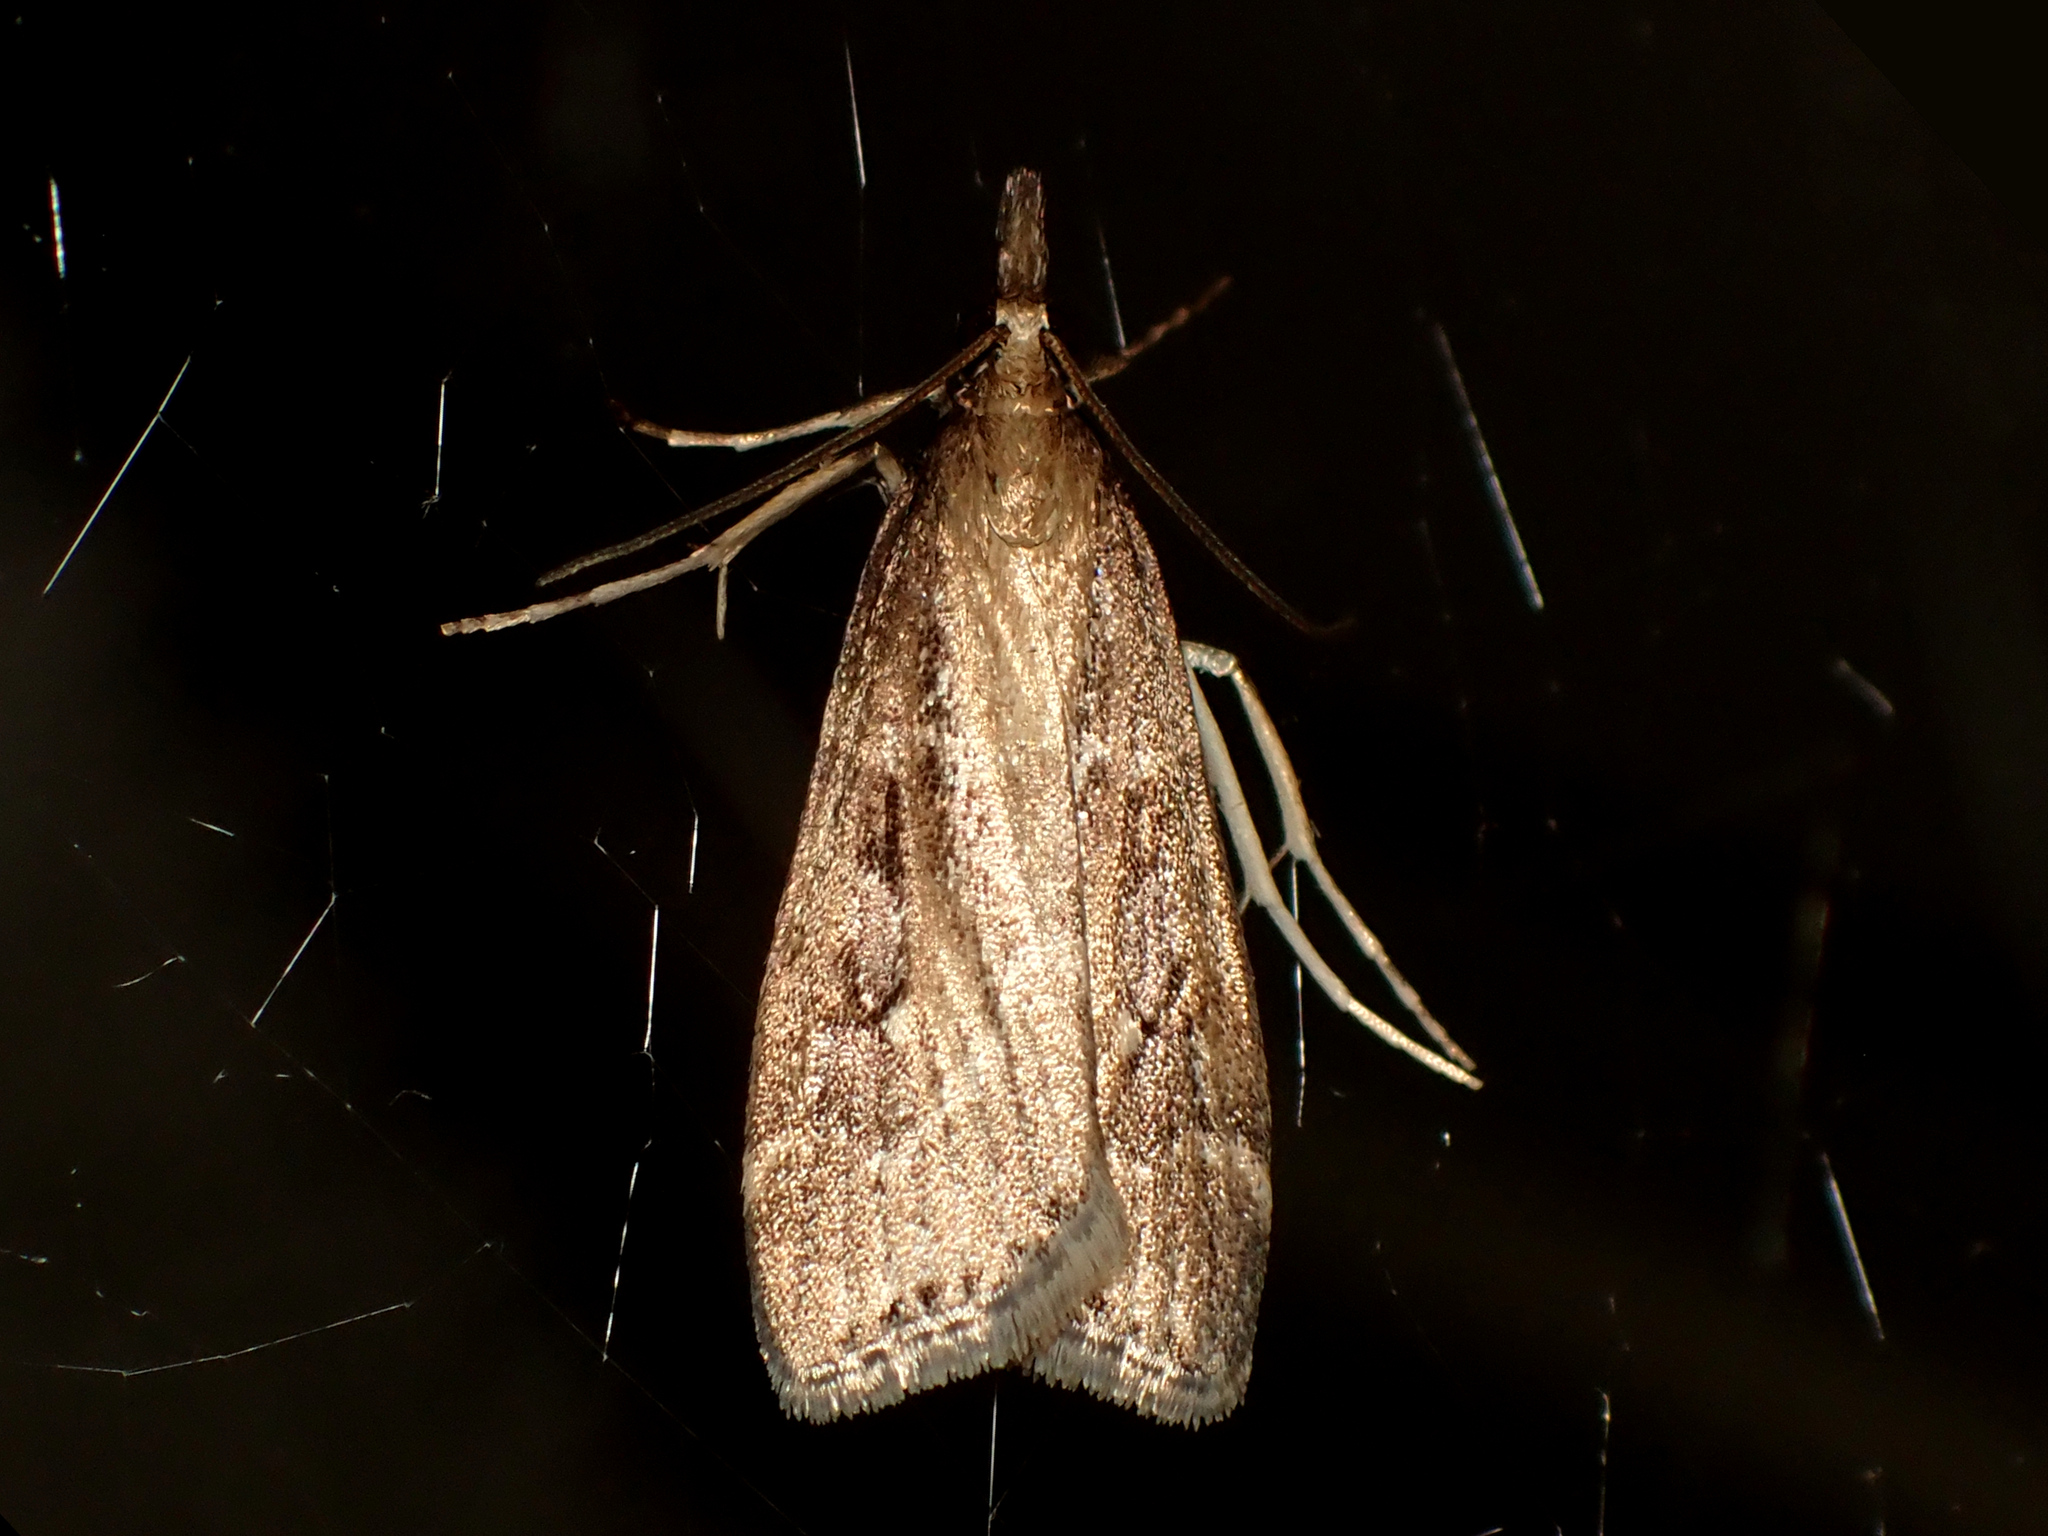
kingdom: Animalia
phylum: Arthropoda
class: Insecta
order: Lepidoptera
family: Crambidae
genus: Eudonia
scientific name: Eudonia octophora
